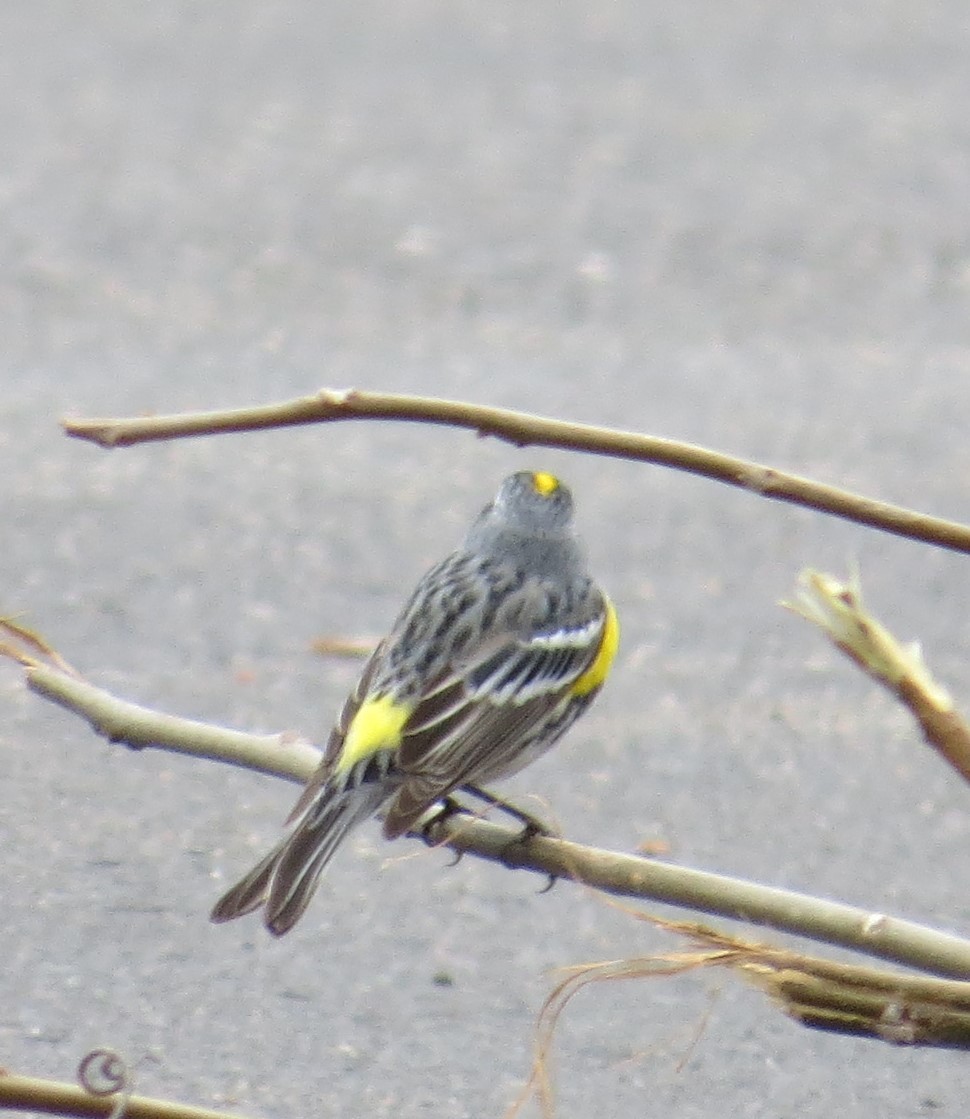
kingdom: Animalia
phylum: Chordata
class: Aves
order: Passeriformes
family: Parulidae
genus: Setophaga
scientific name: Setophaga coronata
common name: Myrtle warbler
